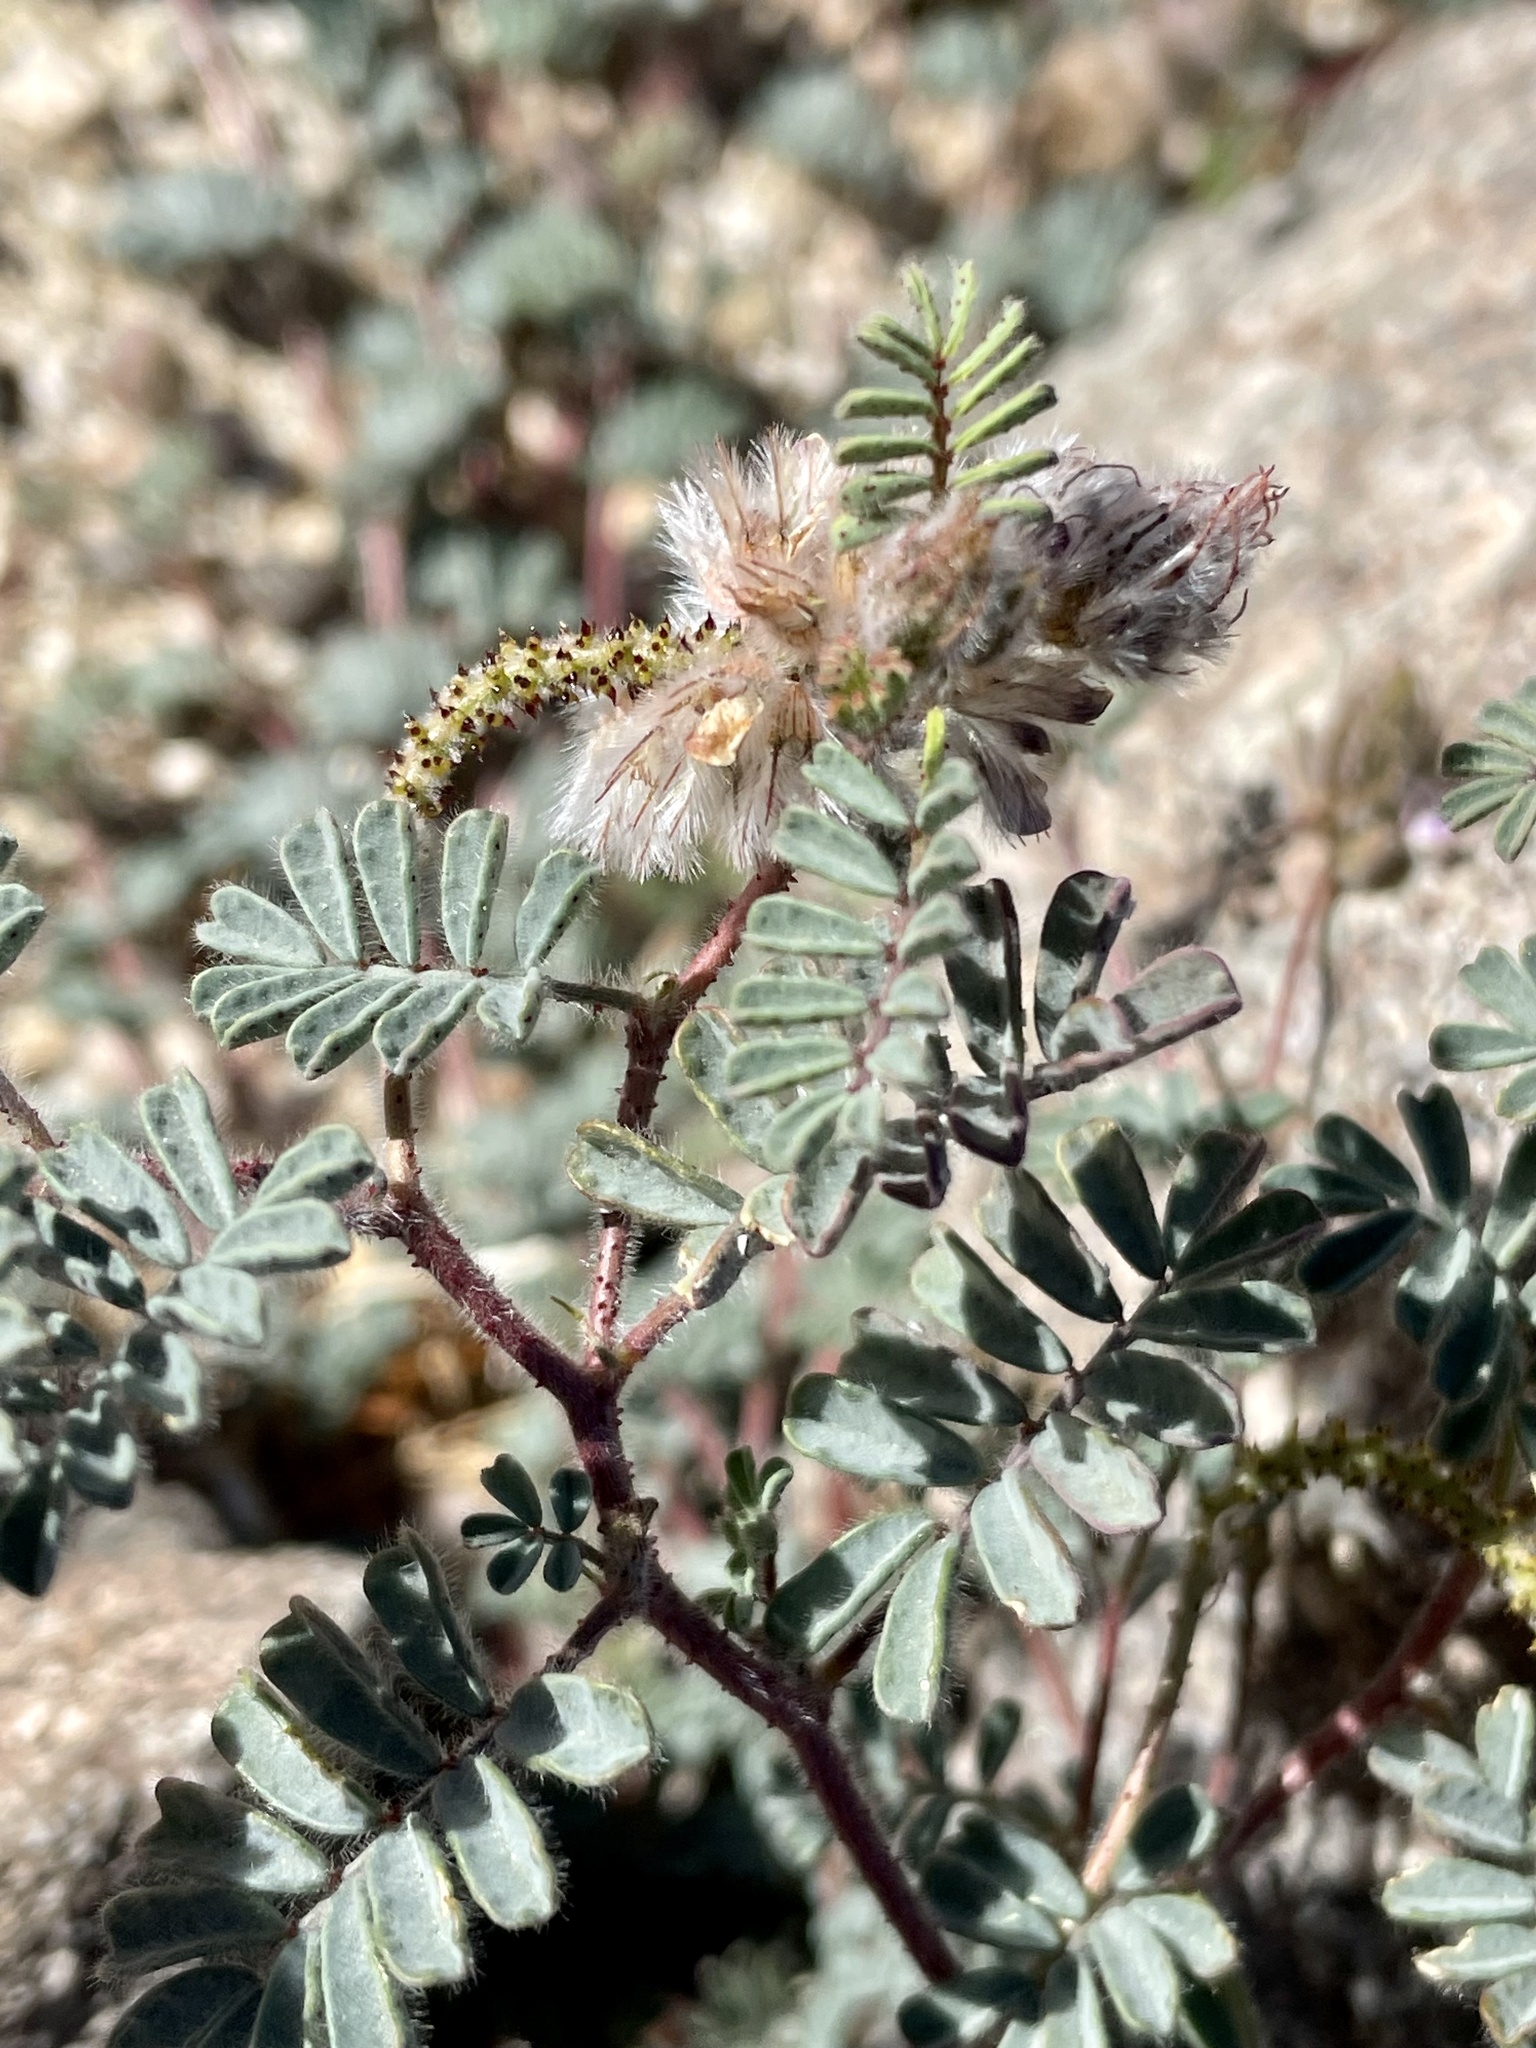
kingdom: Plantae
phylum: Tracheophyta
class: Magnoliopsida
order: Fabales
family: Fabaceae
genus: Dalea
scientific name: Dalea mollis
